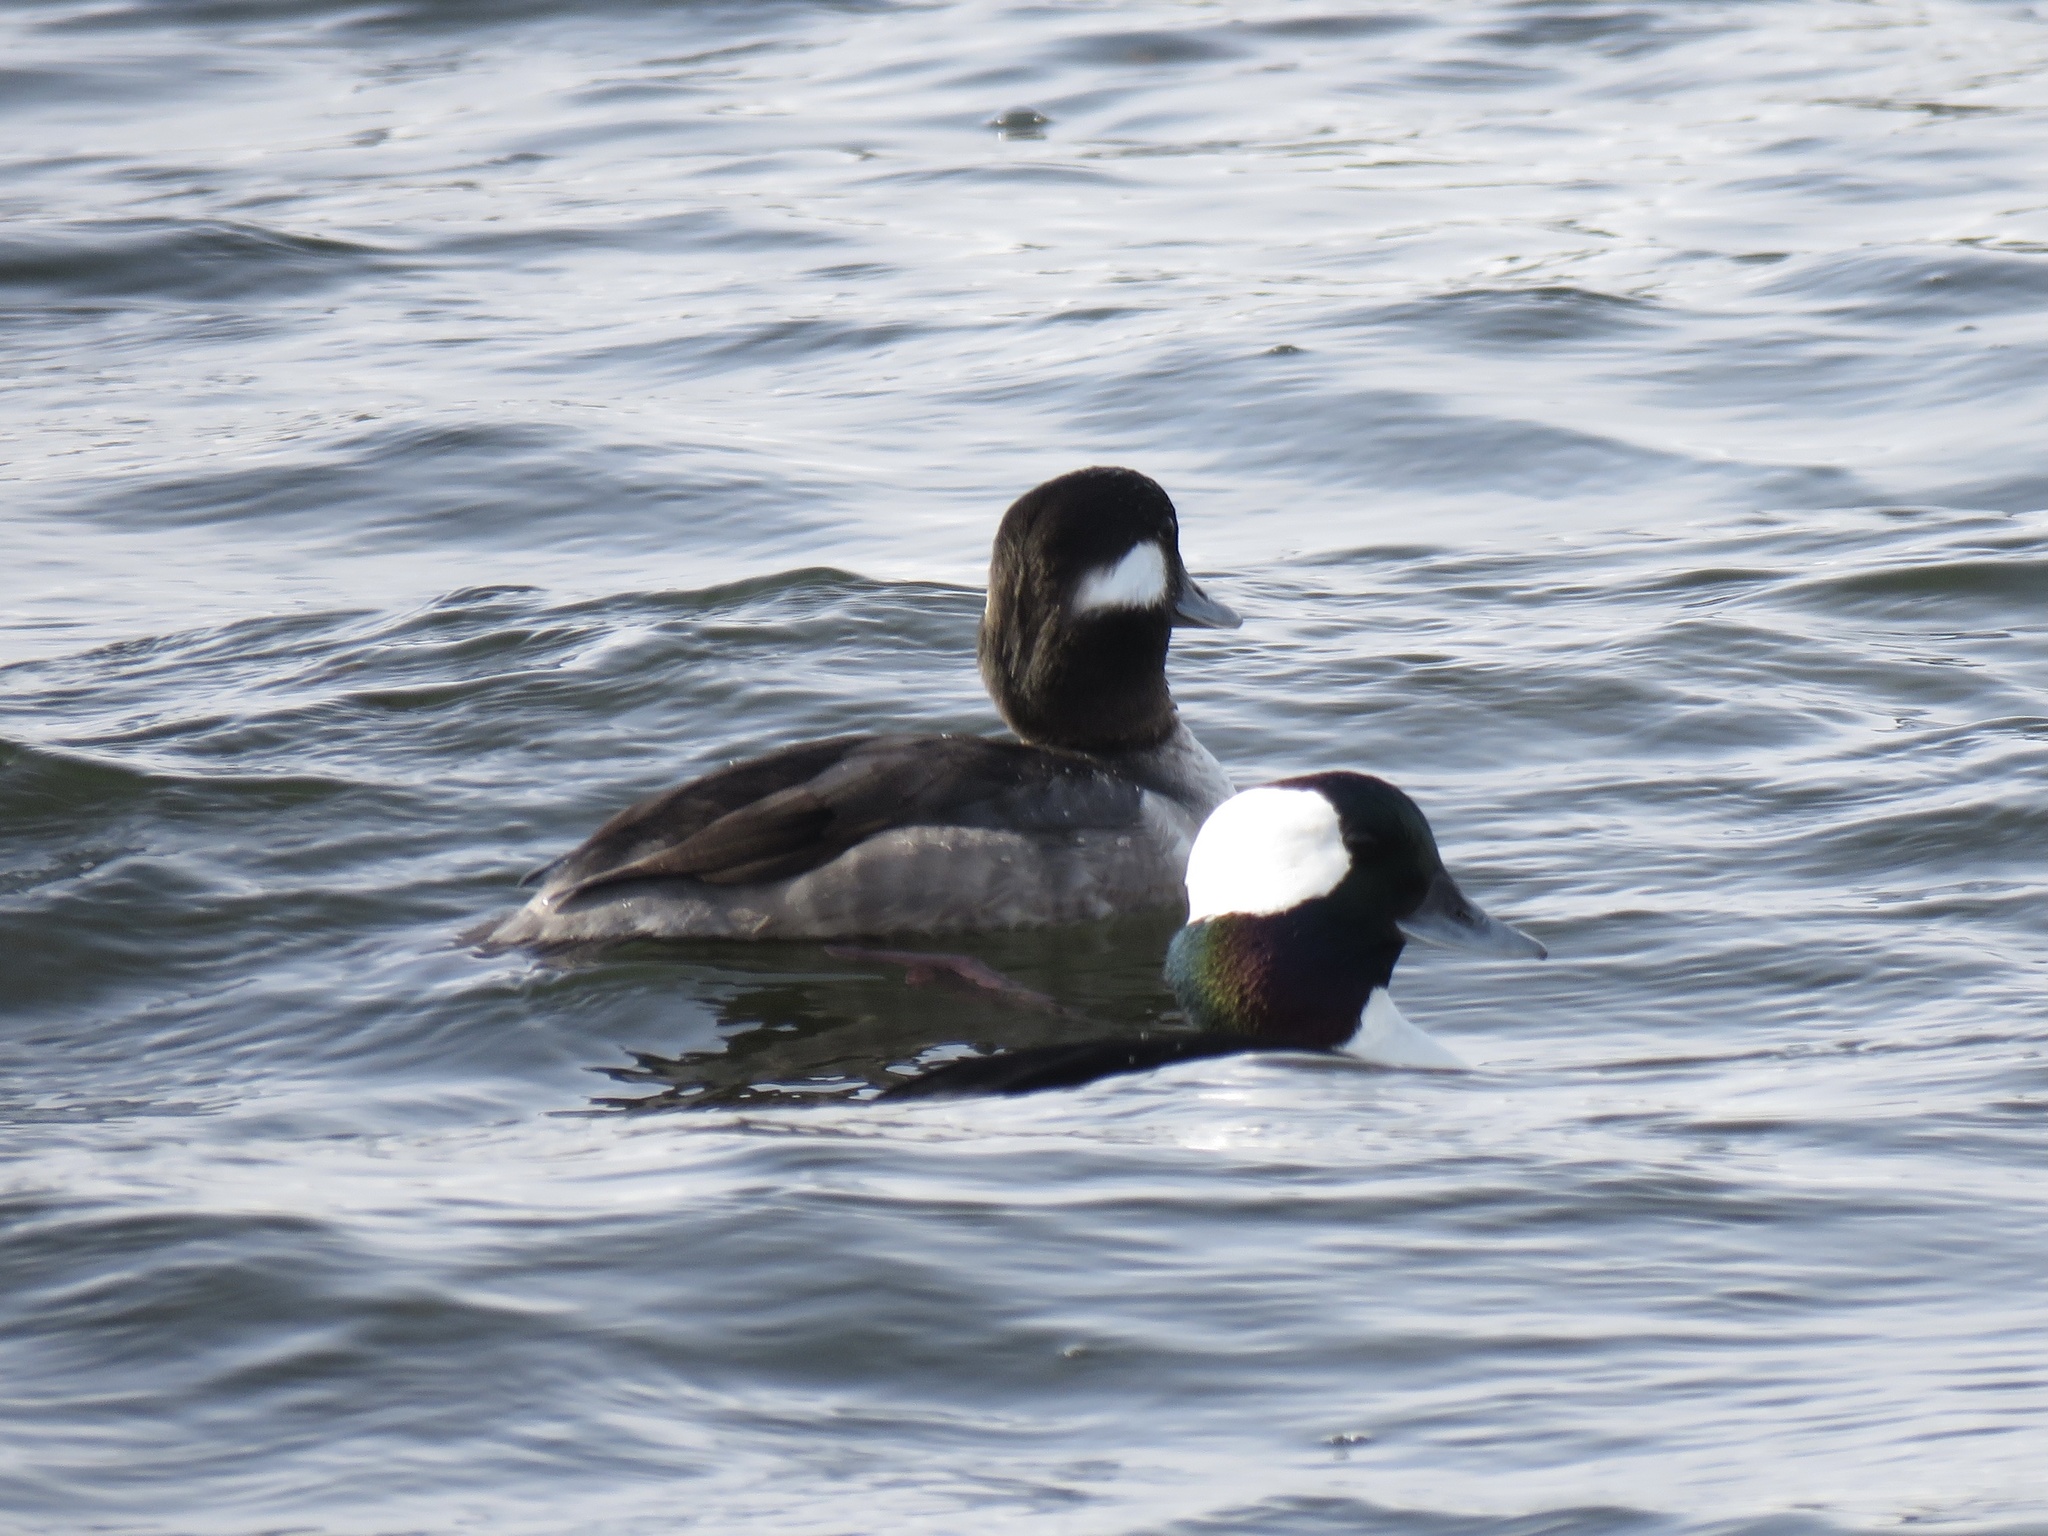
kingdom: Animalia
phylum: Chordata
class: Aves
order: Anseriformes
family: Anatidae
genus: Bucephala
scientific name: Bucephala albeola
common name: Bufflehead
